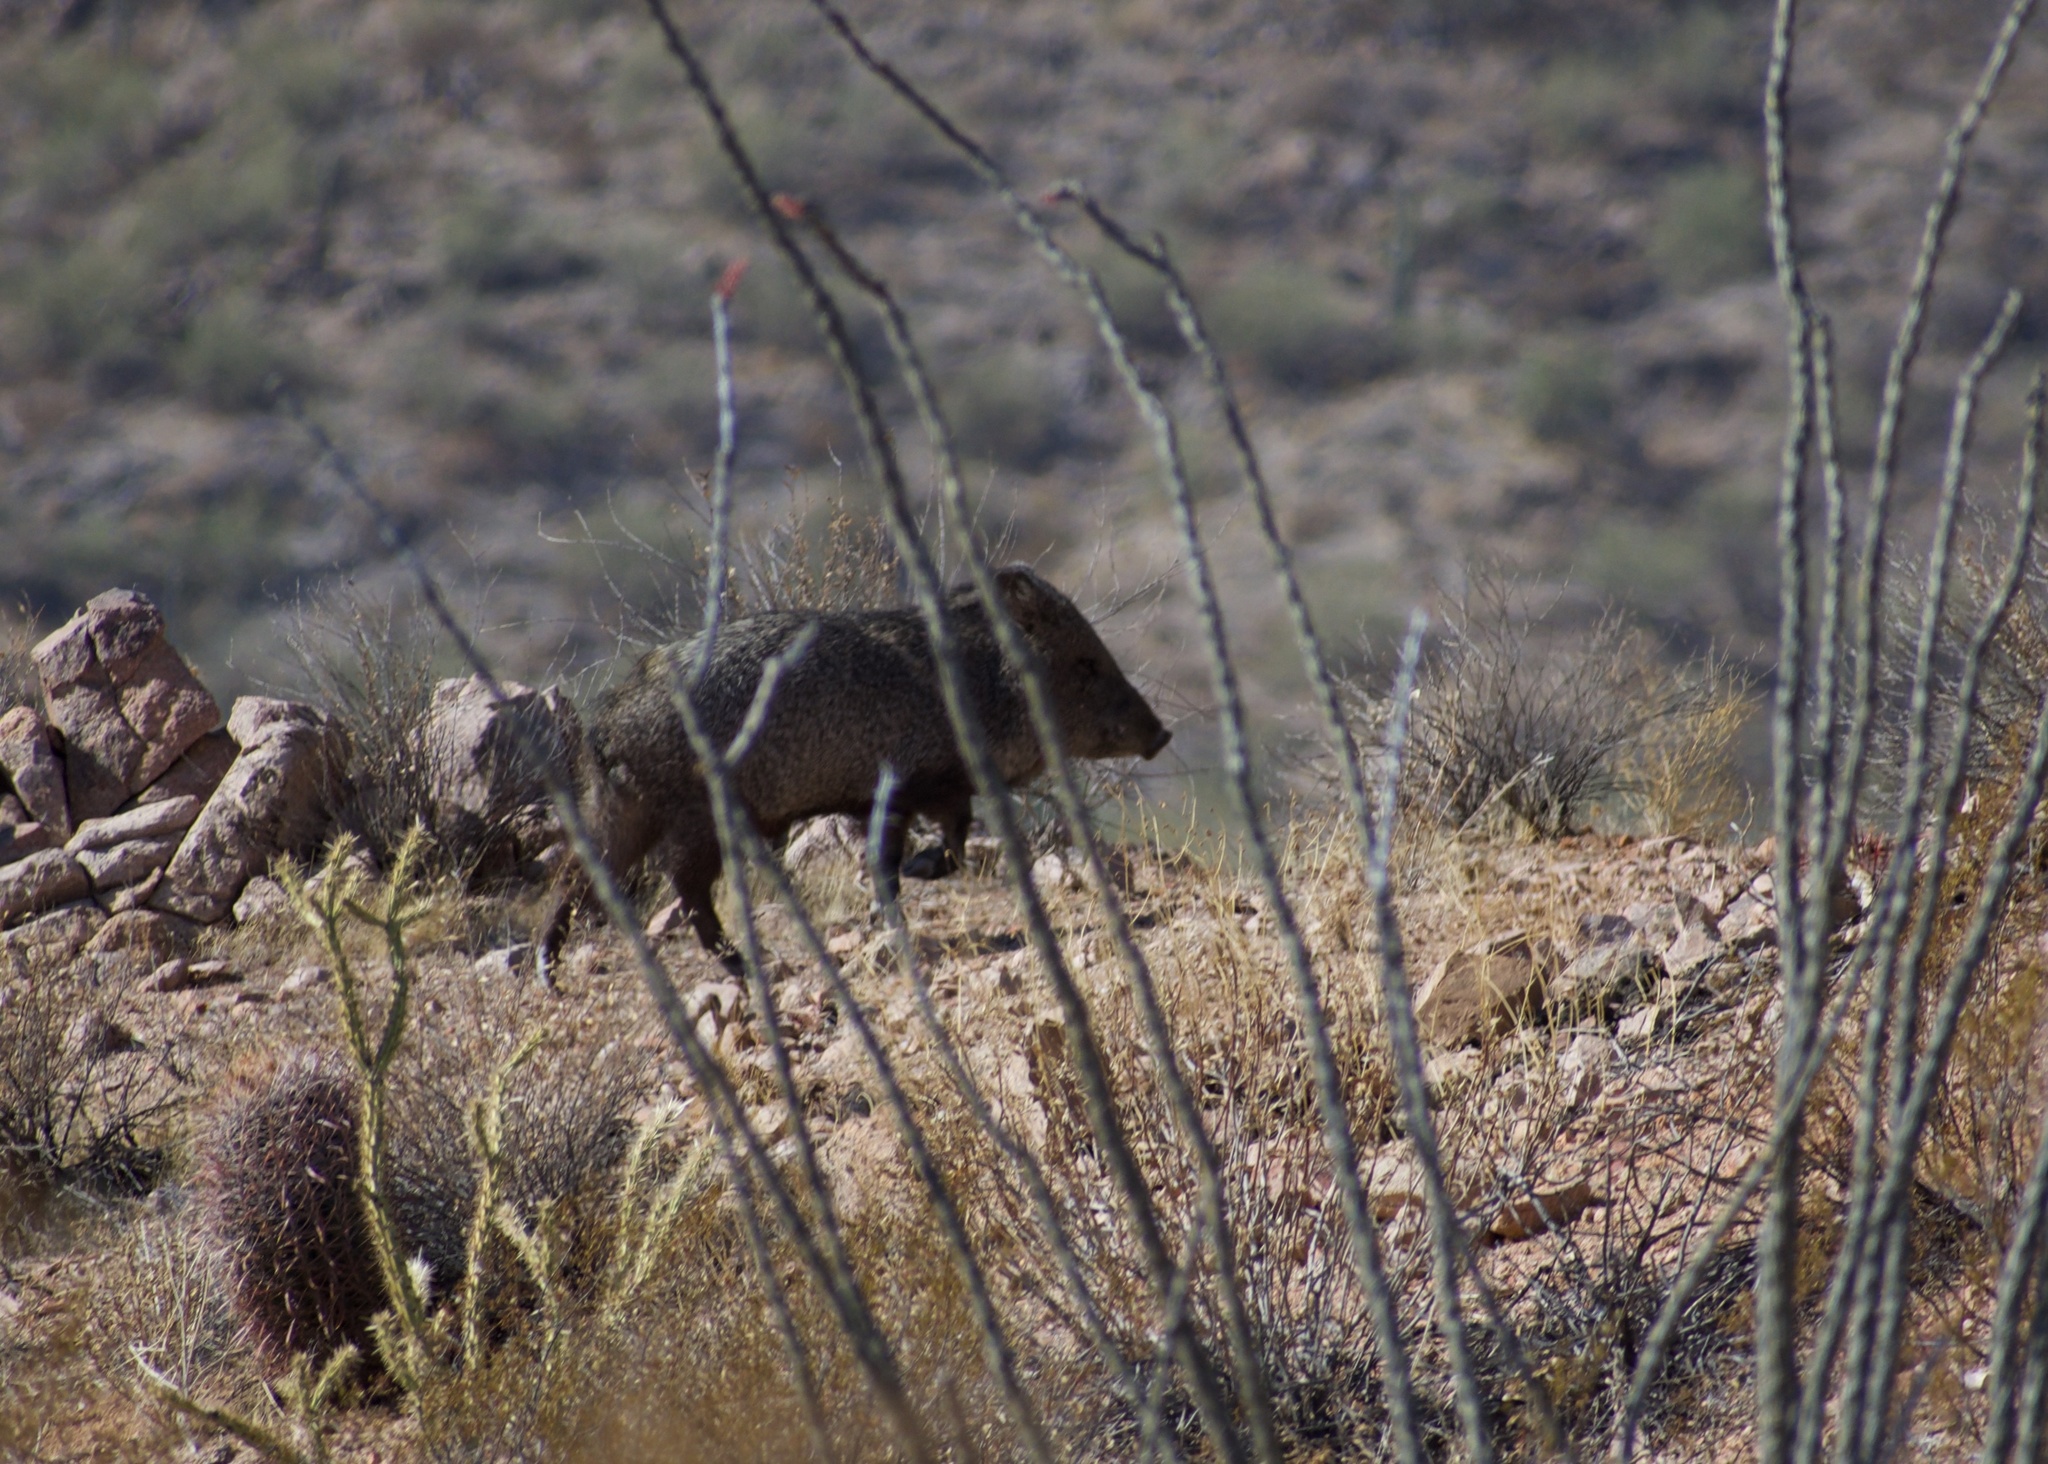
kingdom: Animalia
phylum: Chordata
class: Mammalia
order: Artiodactyla
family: Tayassuidae
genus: Pecari
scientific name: Pecari tajacu
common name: Collared peccary
